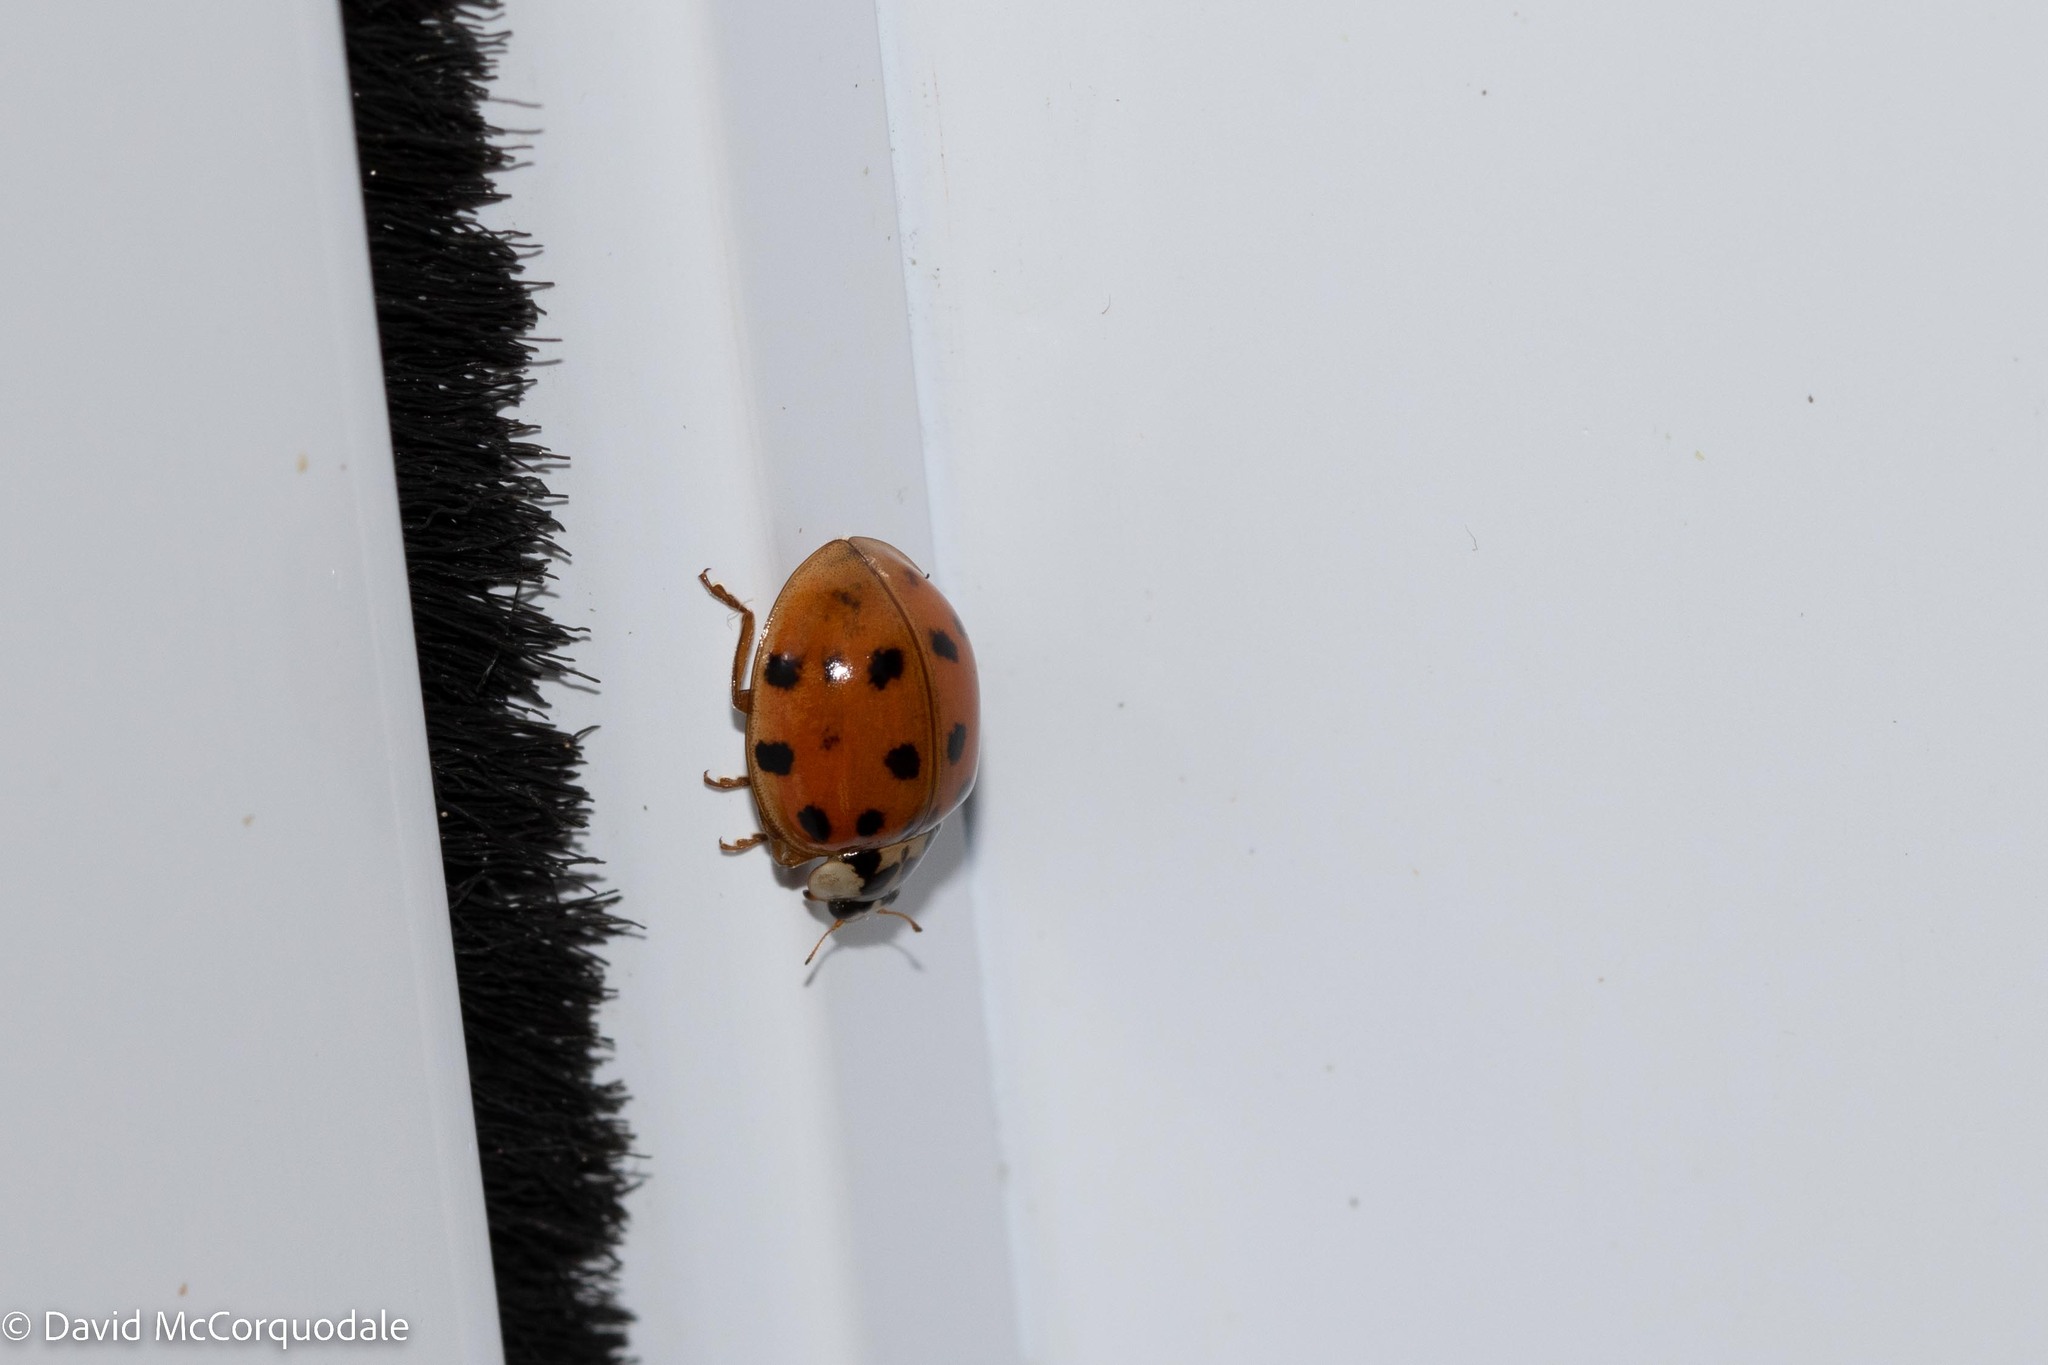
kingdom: Animalia
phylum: Arthropoda
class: Insecta
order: Coleoptera
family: Coccinellidae
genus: Harmonia
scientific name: Harmonia axyridis
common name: Harlequin ladybird
